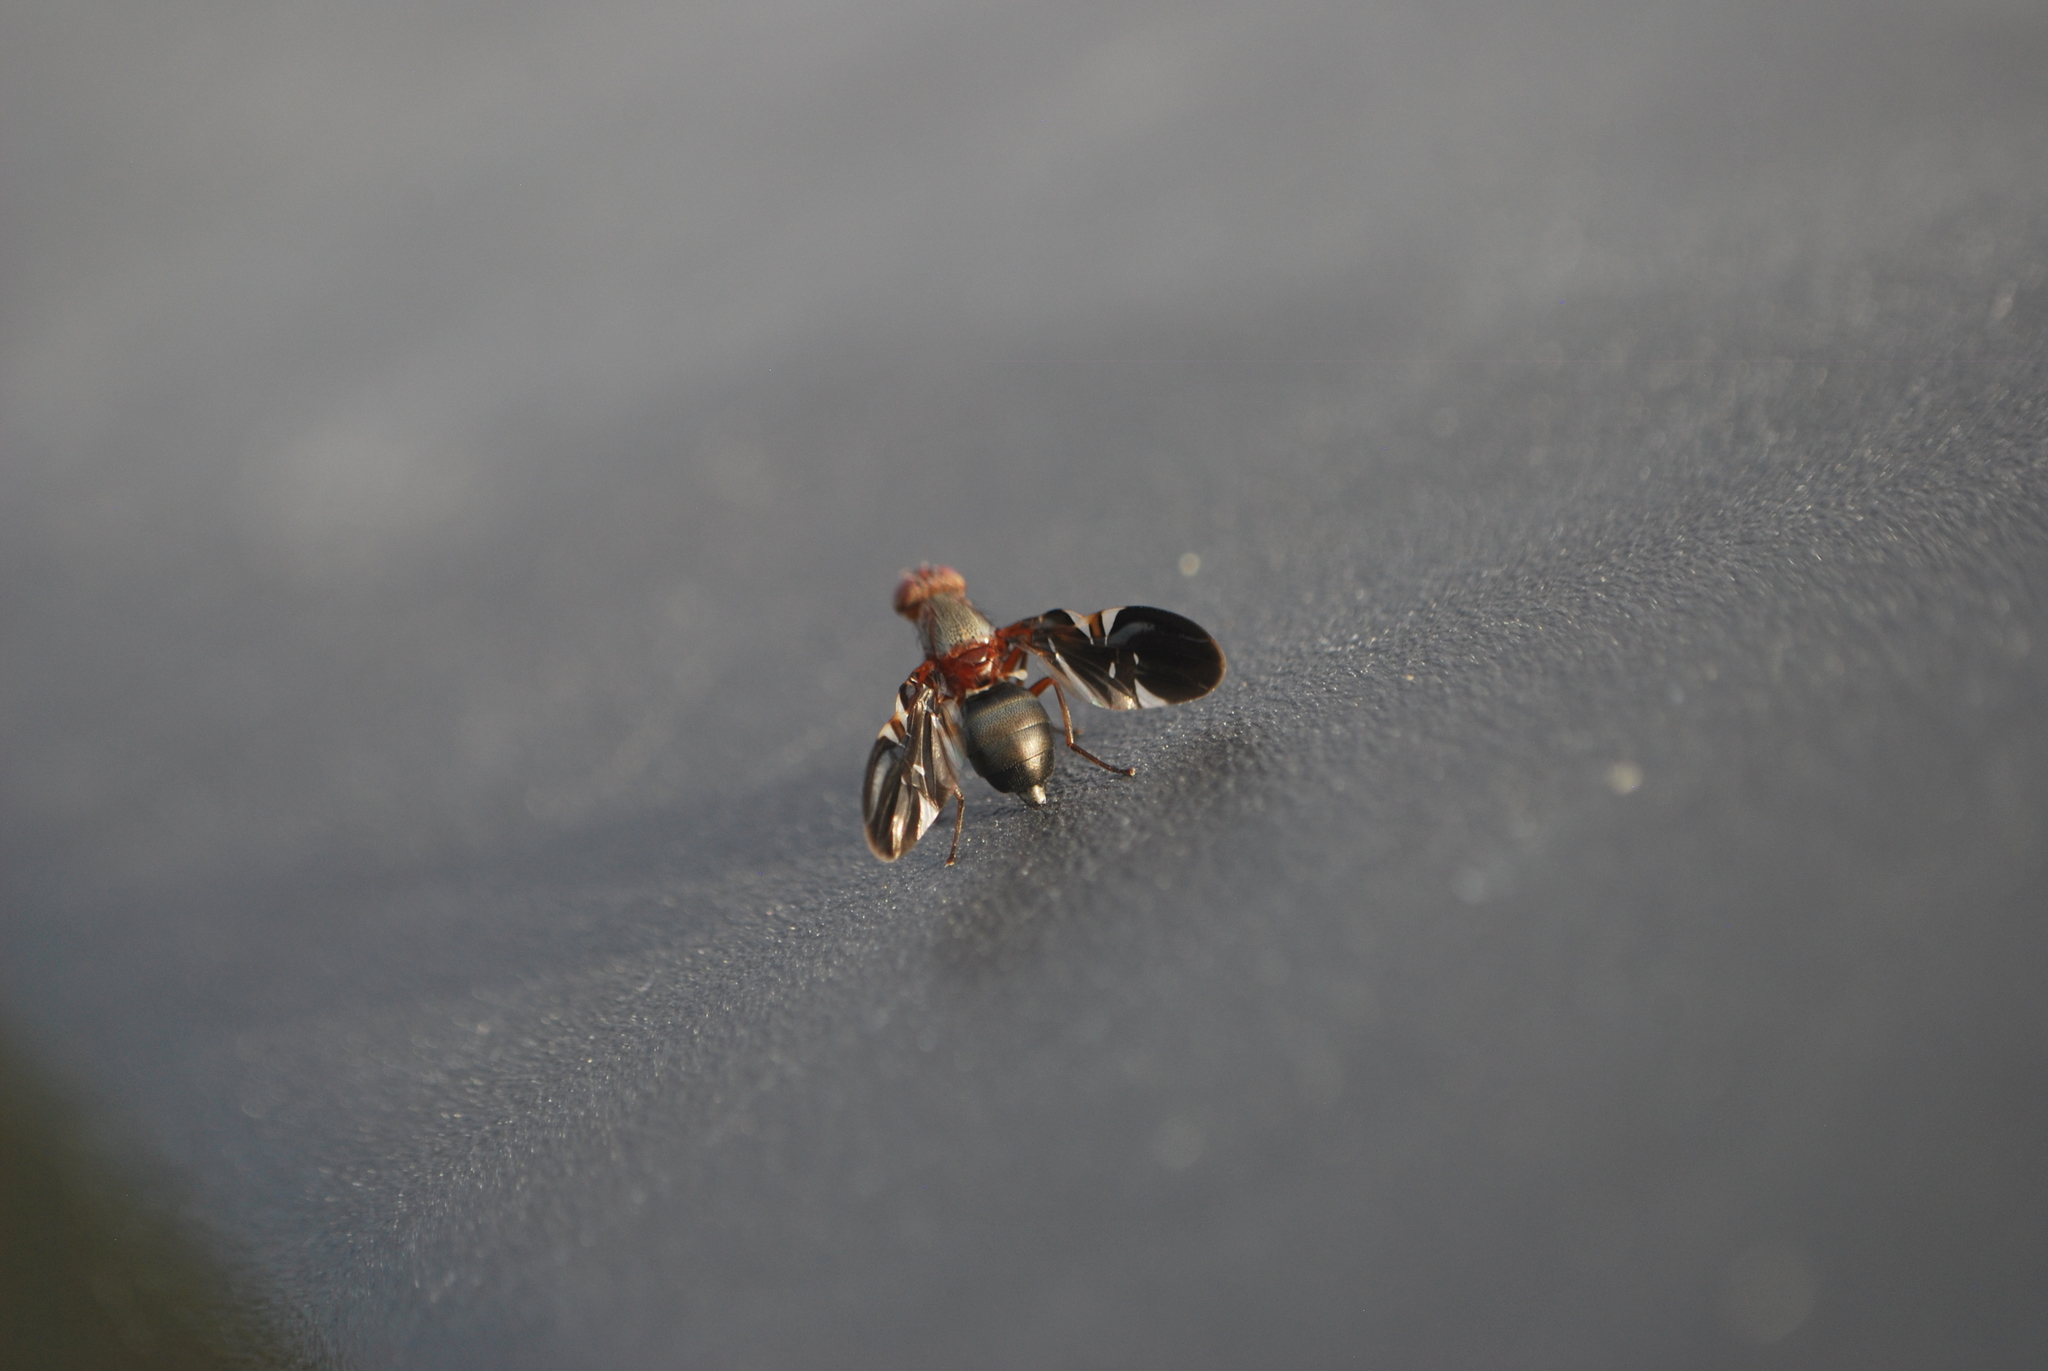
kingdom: Animalia
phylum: Arthropoda
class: Insecta
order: Diptera
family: Ulidiidae
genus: Delphinia
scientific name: Delphinia picta
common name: Common picture-winged fly
